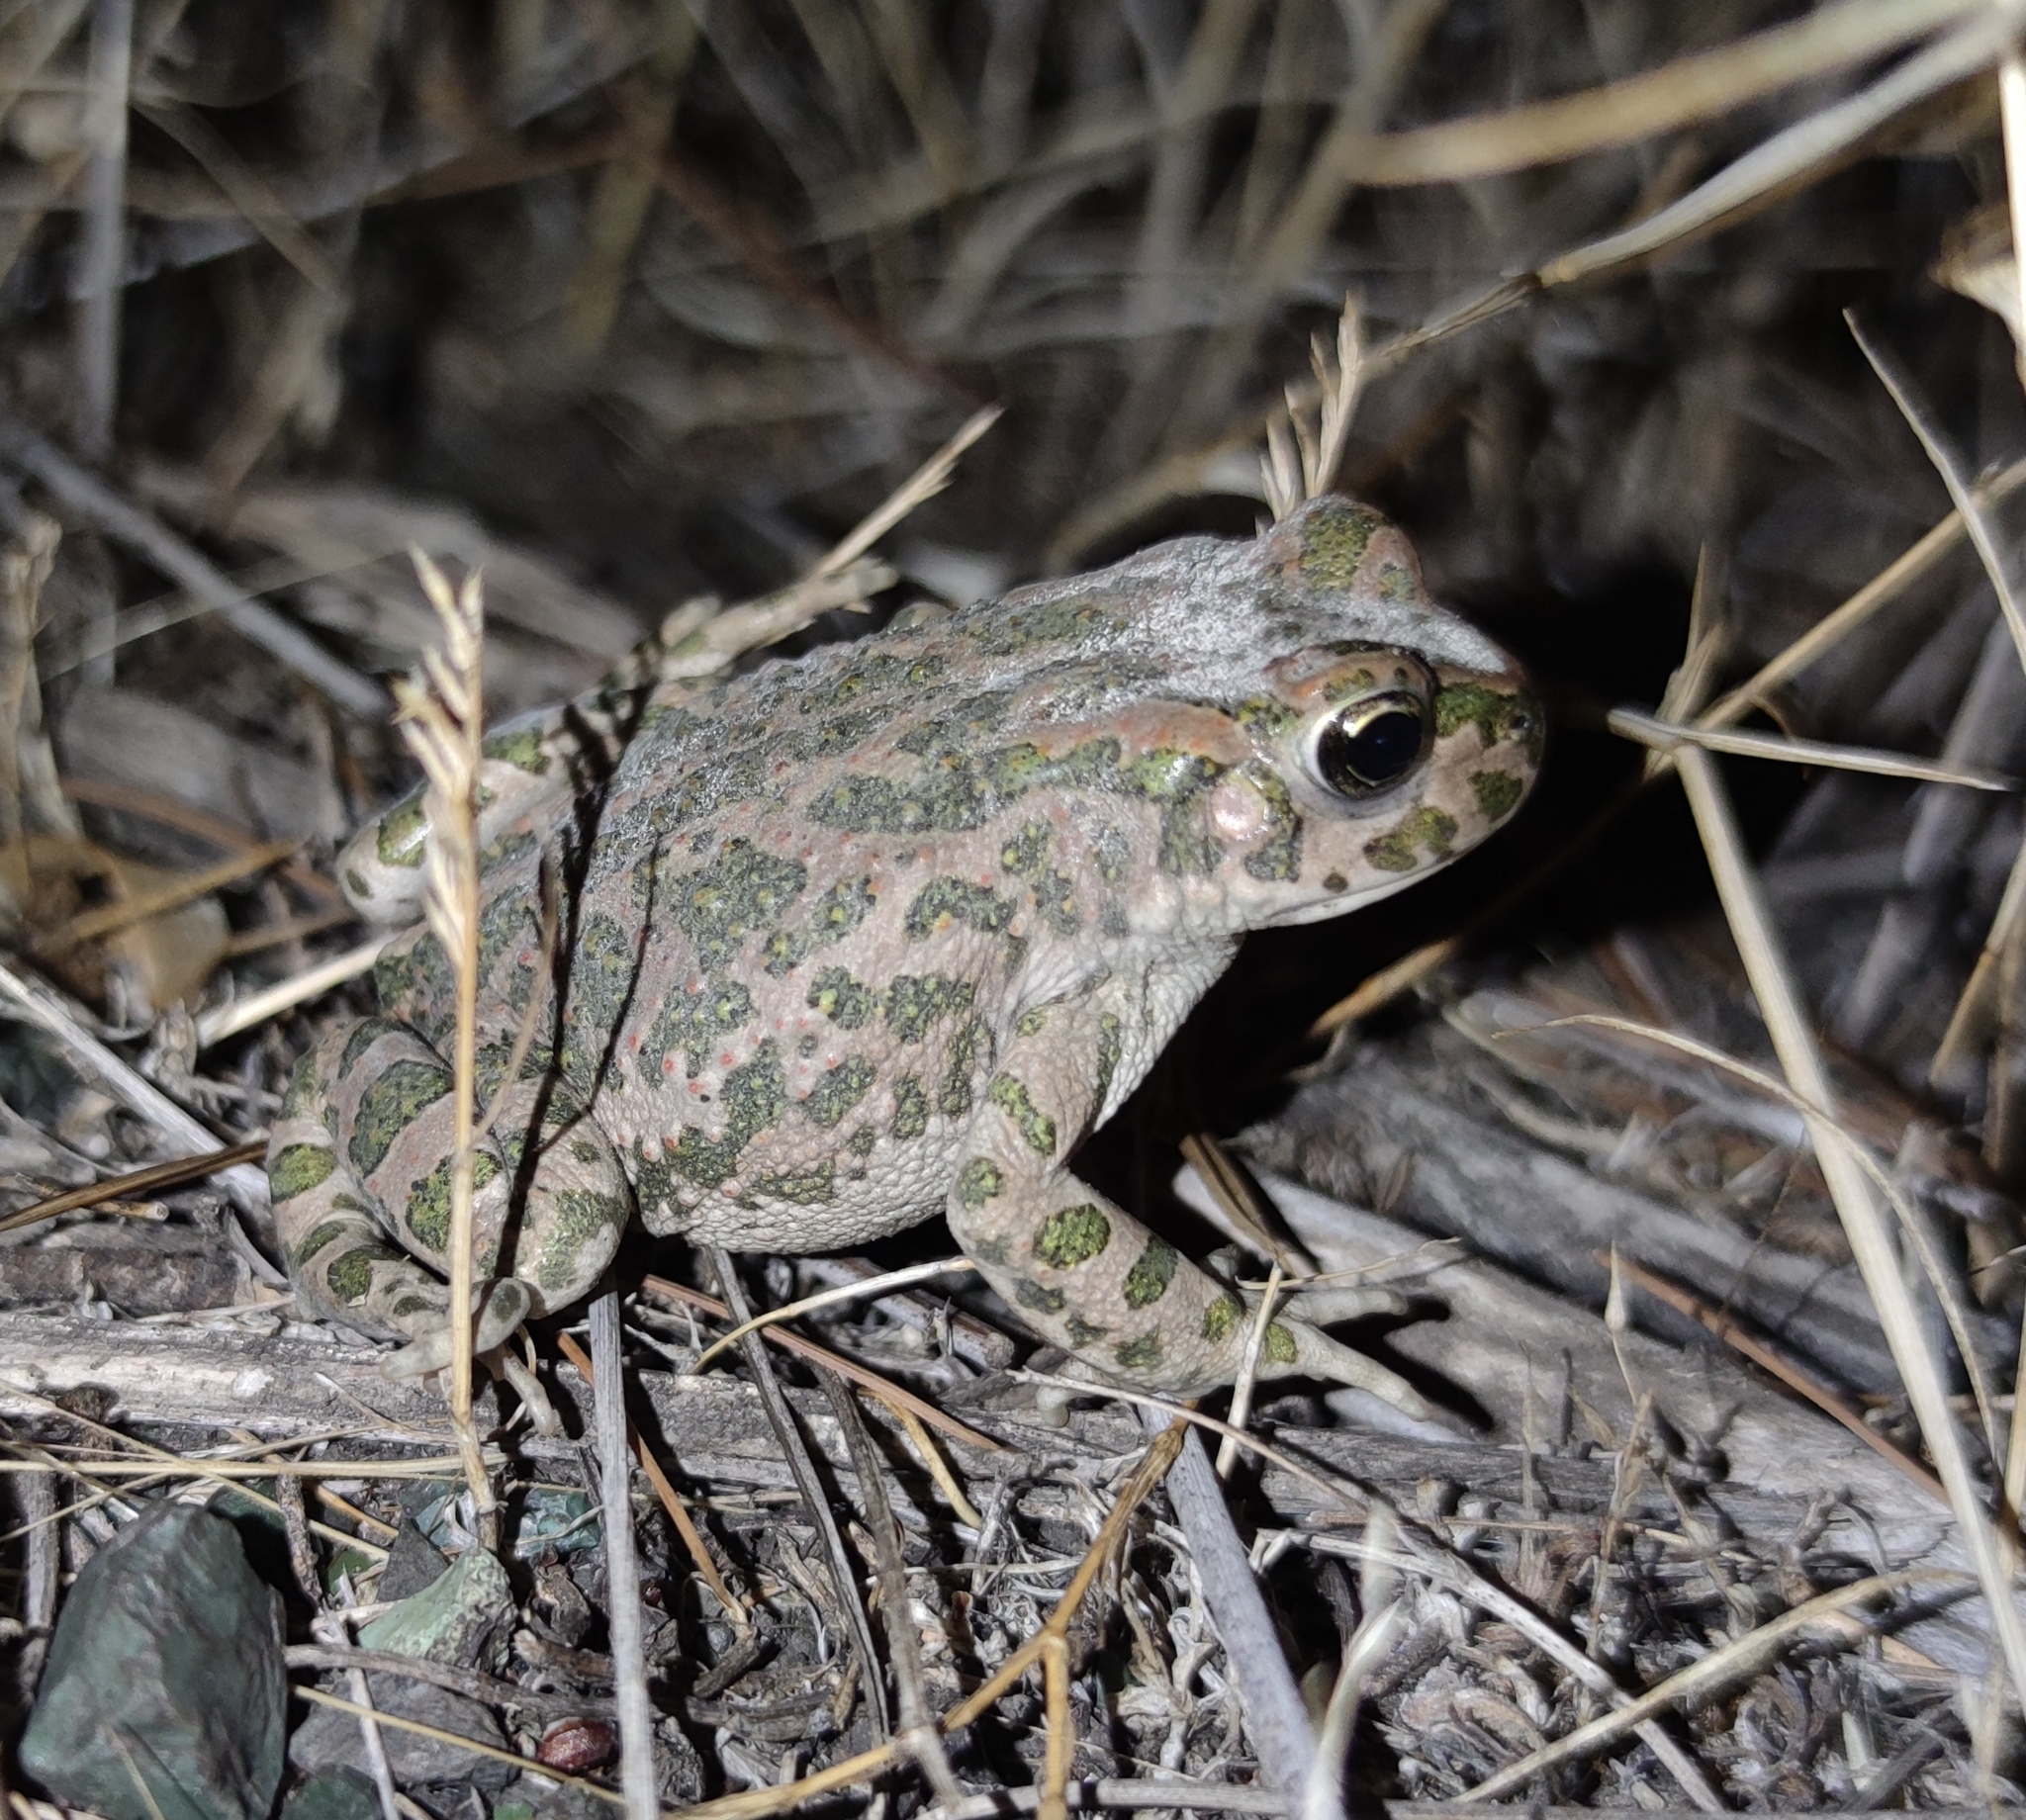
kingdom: Animalia
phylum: Chordata
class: Amphibia
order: Anura
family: Bufonidae
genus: Bufotes
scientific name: Bufotes viridis
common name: European green toad
